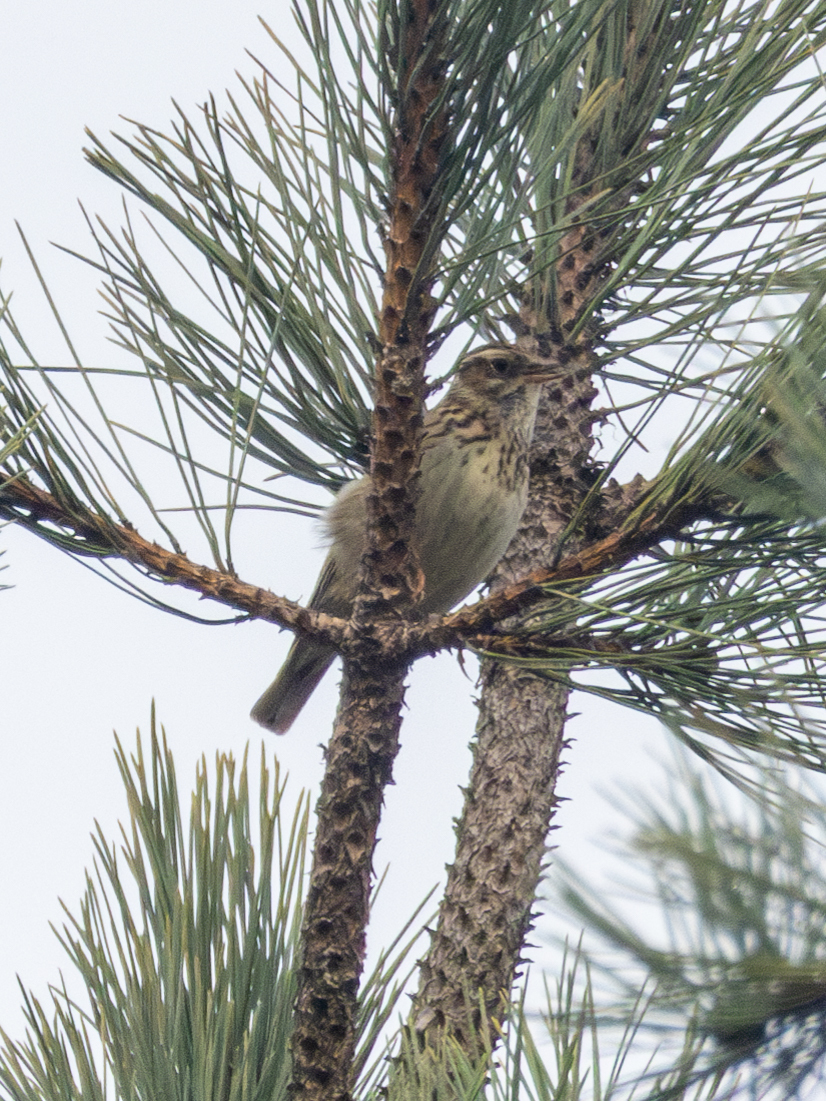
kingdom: Animalia
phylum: Chordata
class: Aves
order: Passeriformes
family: Alaudidae
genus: Lullula
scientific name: Lullula arborea
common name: Woodlark
